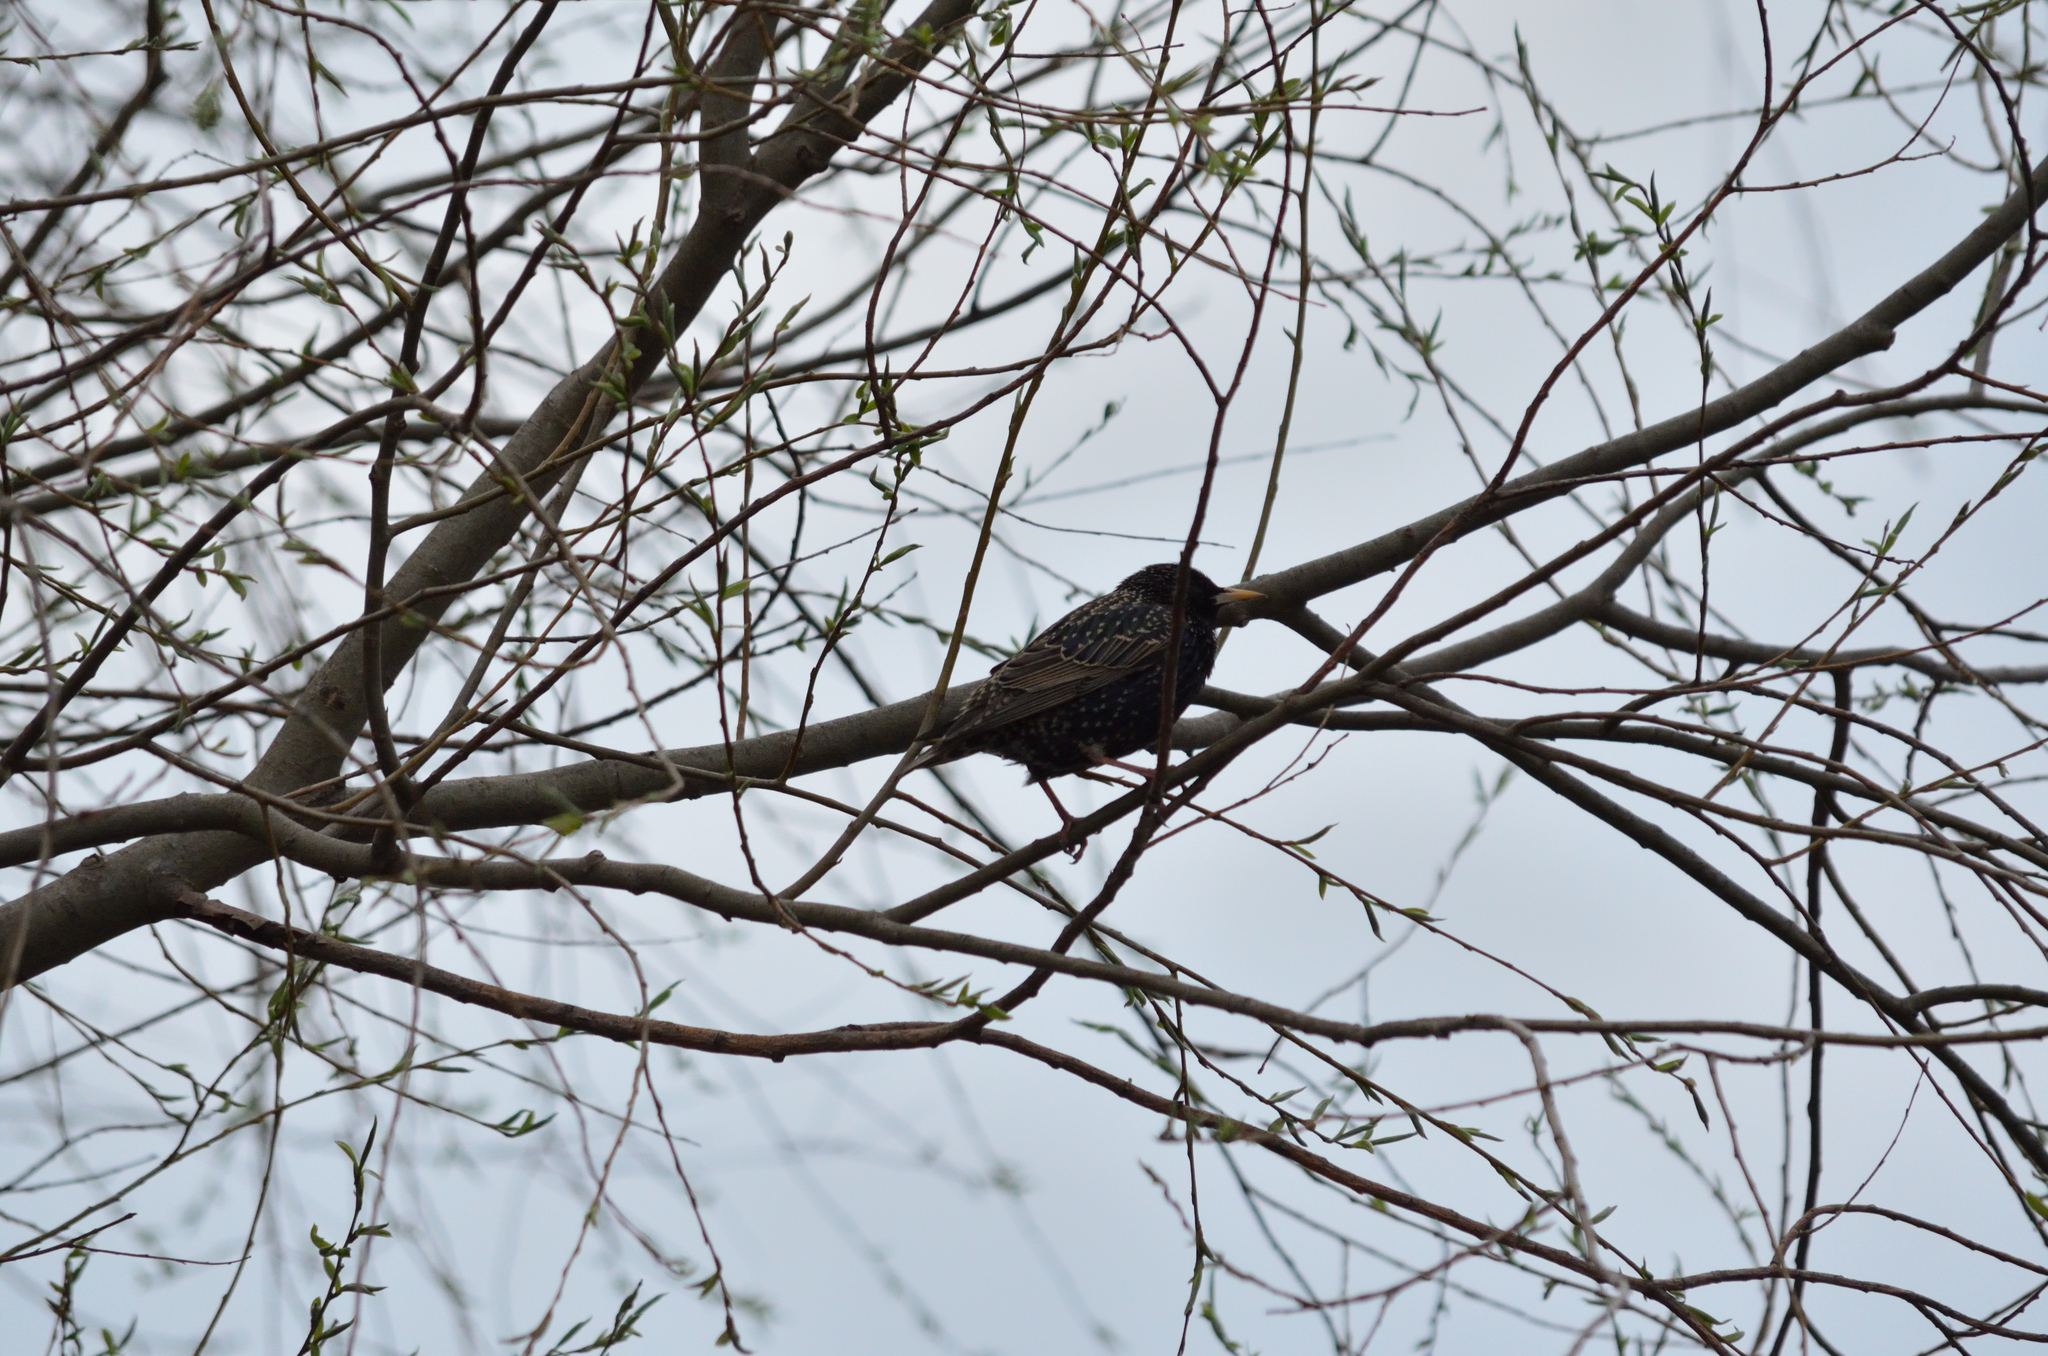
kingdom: Animalia
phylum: Chordata
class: Aves
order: Passeriformes
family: Sturnidae
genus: Sturnus
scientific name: Sturnus vulgaris
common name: Common starling
